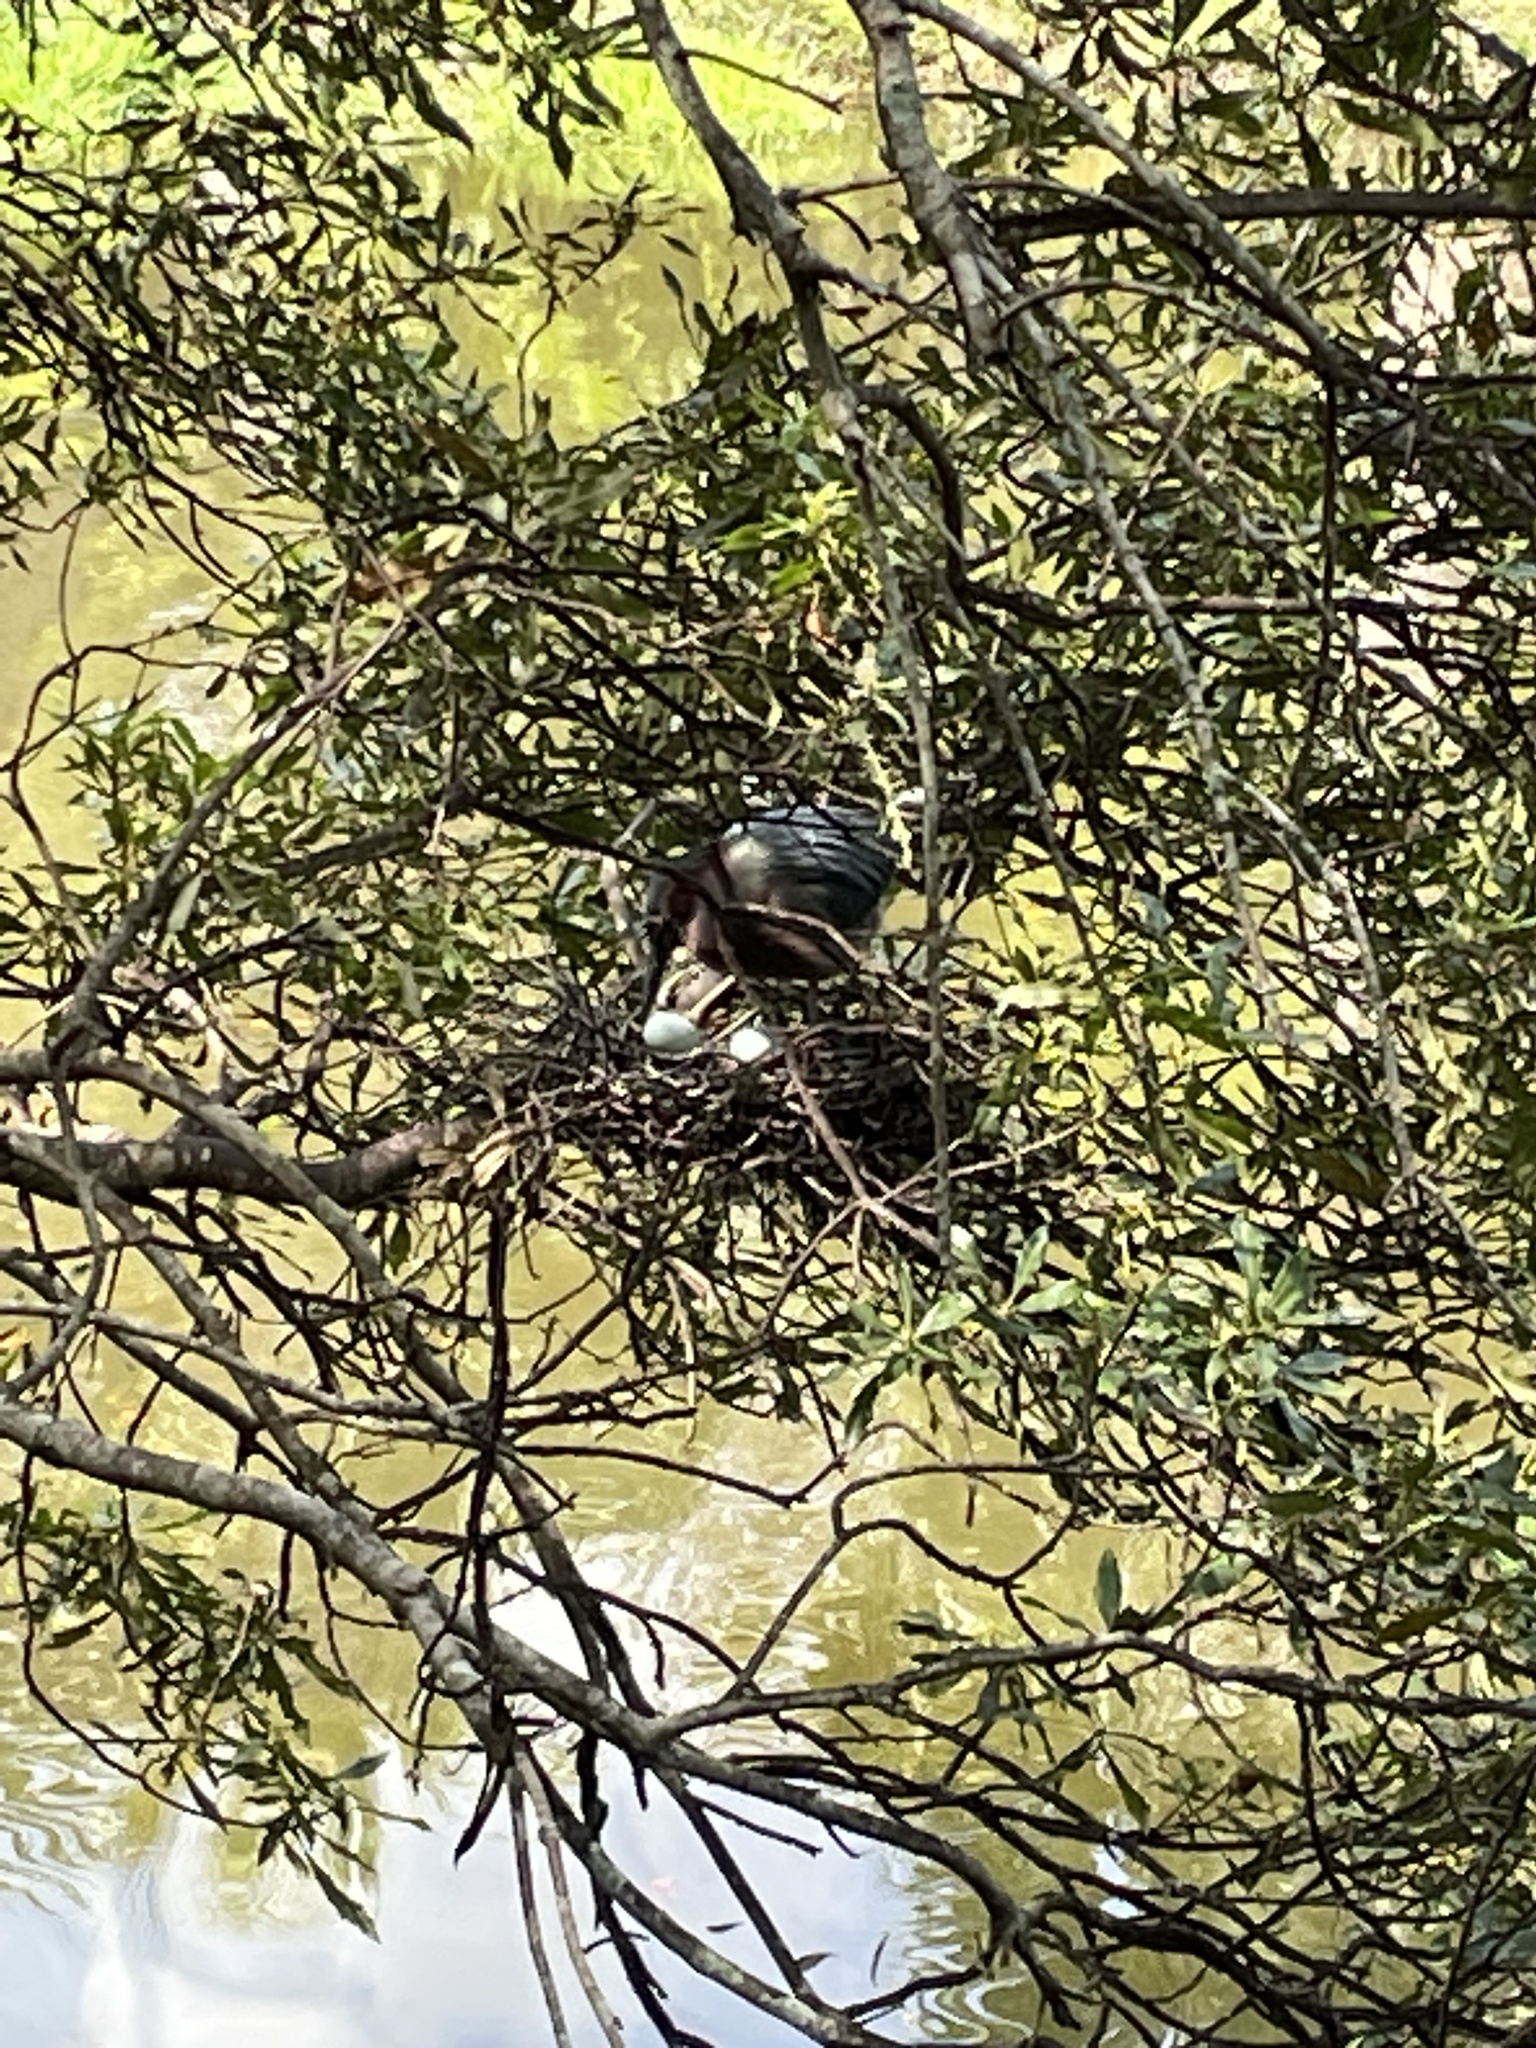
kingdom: Animalia
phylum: Chordata
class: Aves
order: Pelecaniformes
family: Ardeidae
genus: Butorides
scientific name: Butorides virescens
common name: Green heron
